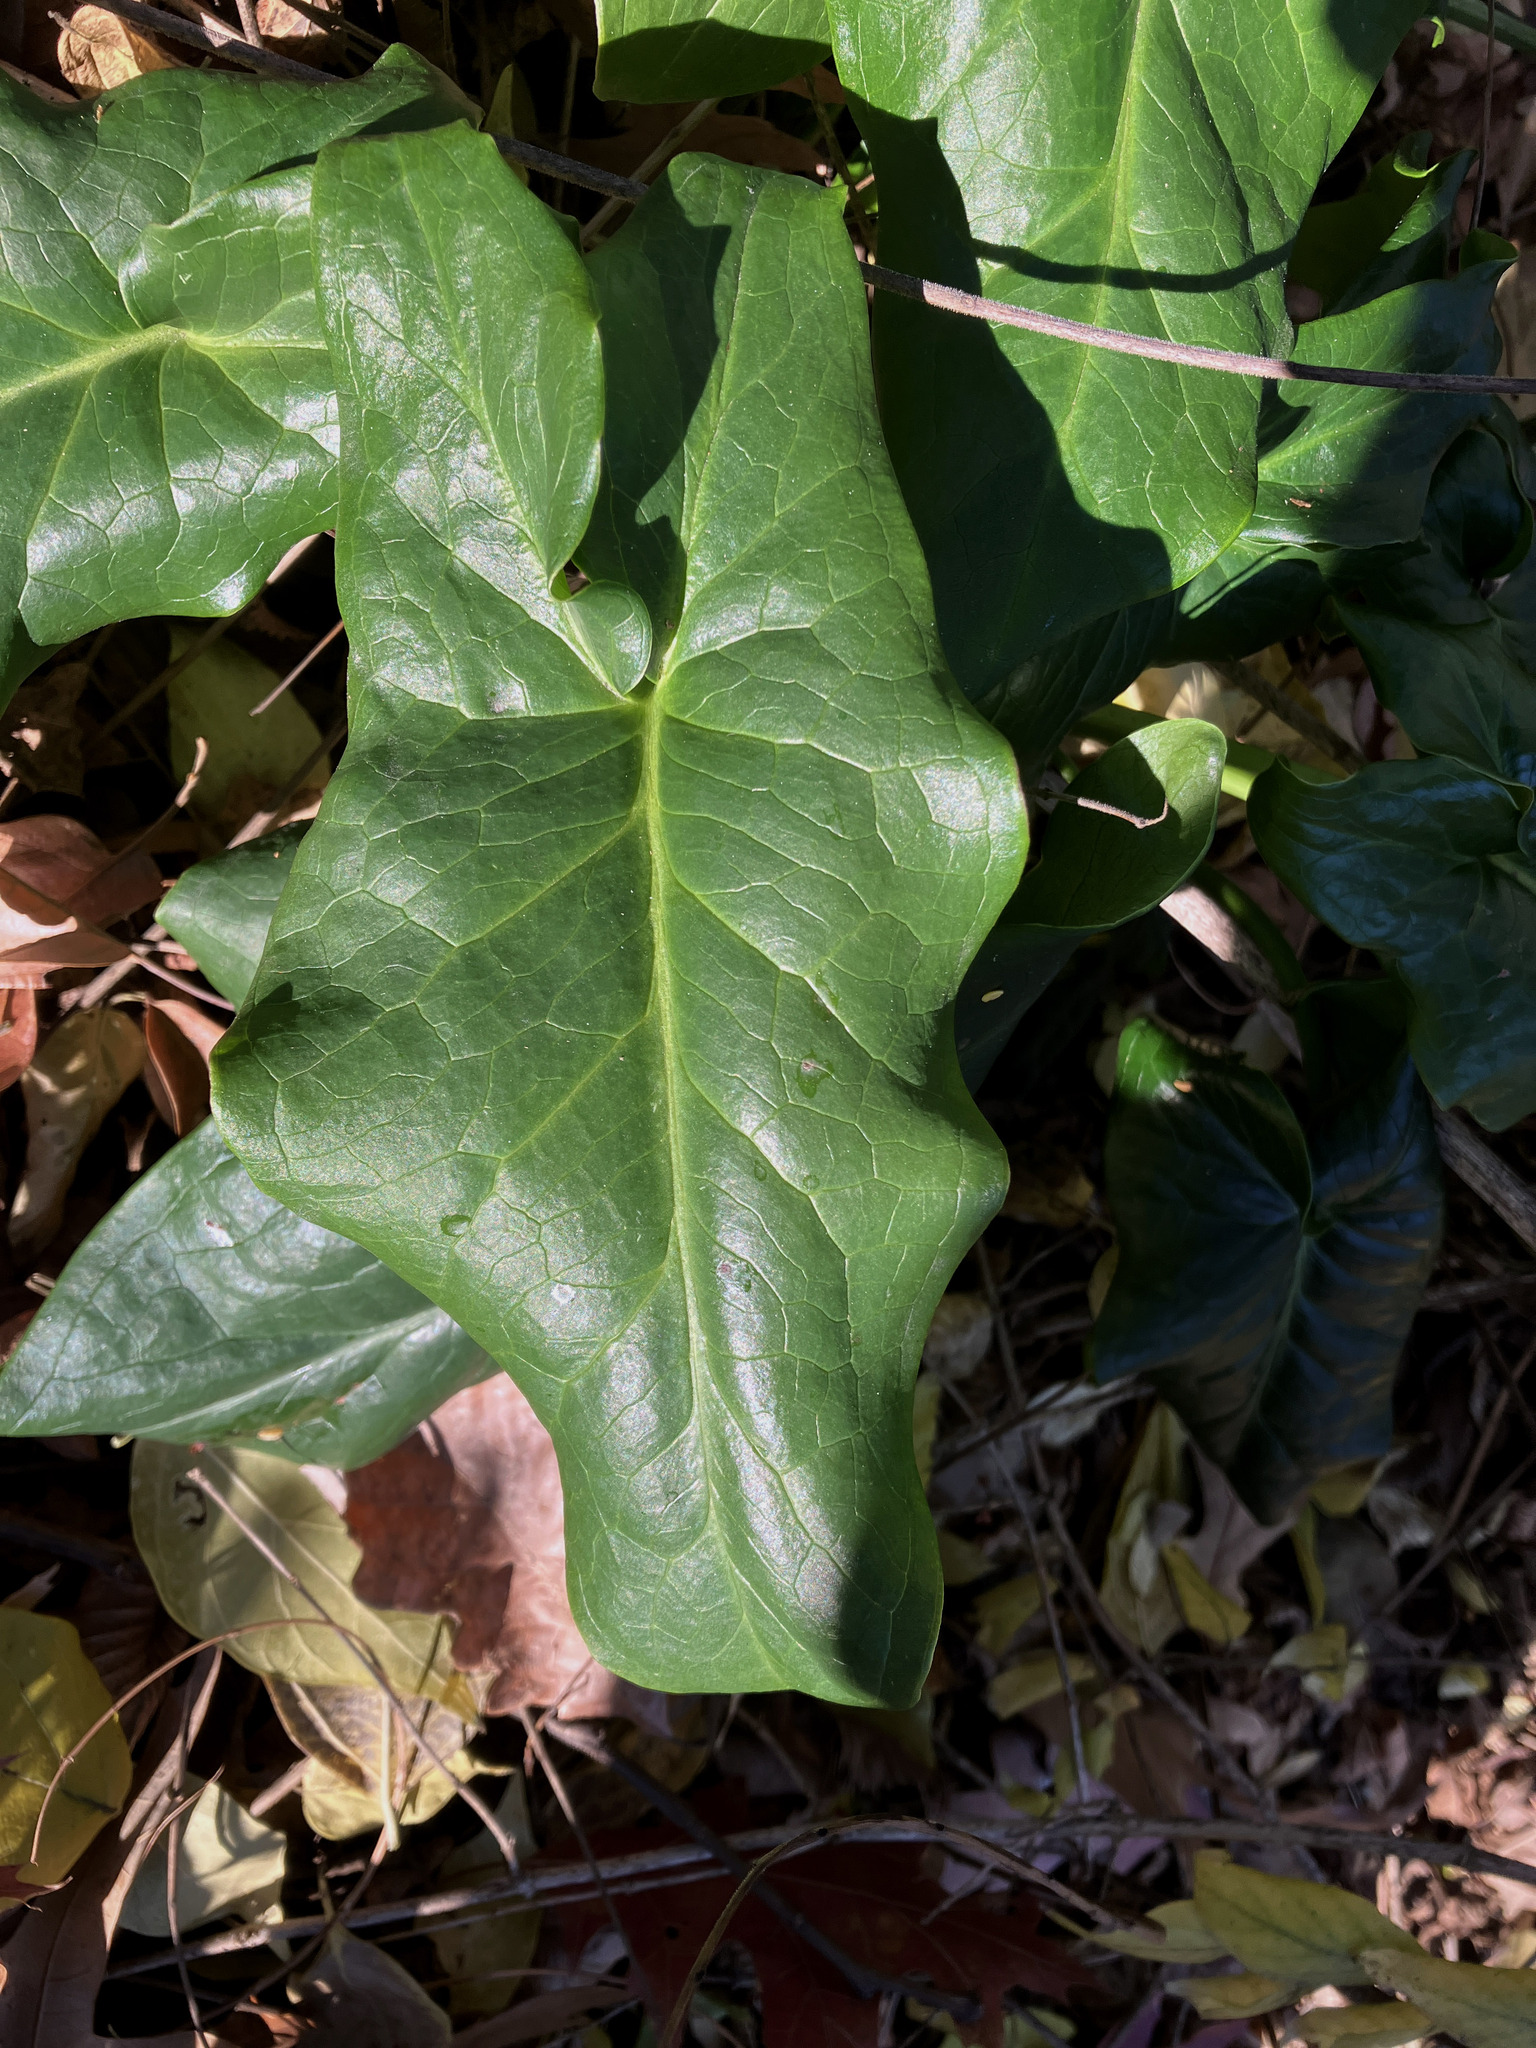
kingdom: Plantae
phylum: Tracheophyta
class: Liliopsida
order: Alismatales
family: Araceae
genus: Arum
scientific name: Arum italicum
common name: Italian lords-and-ladies
